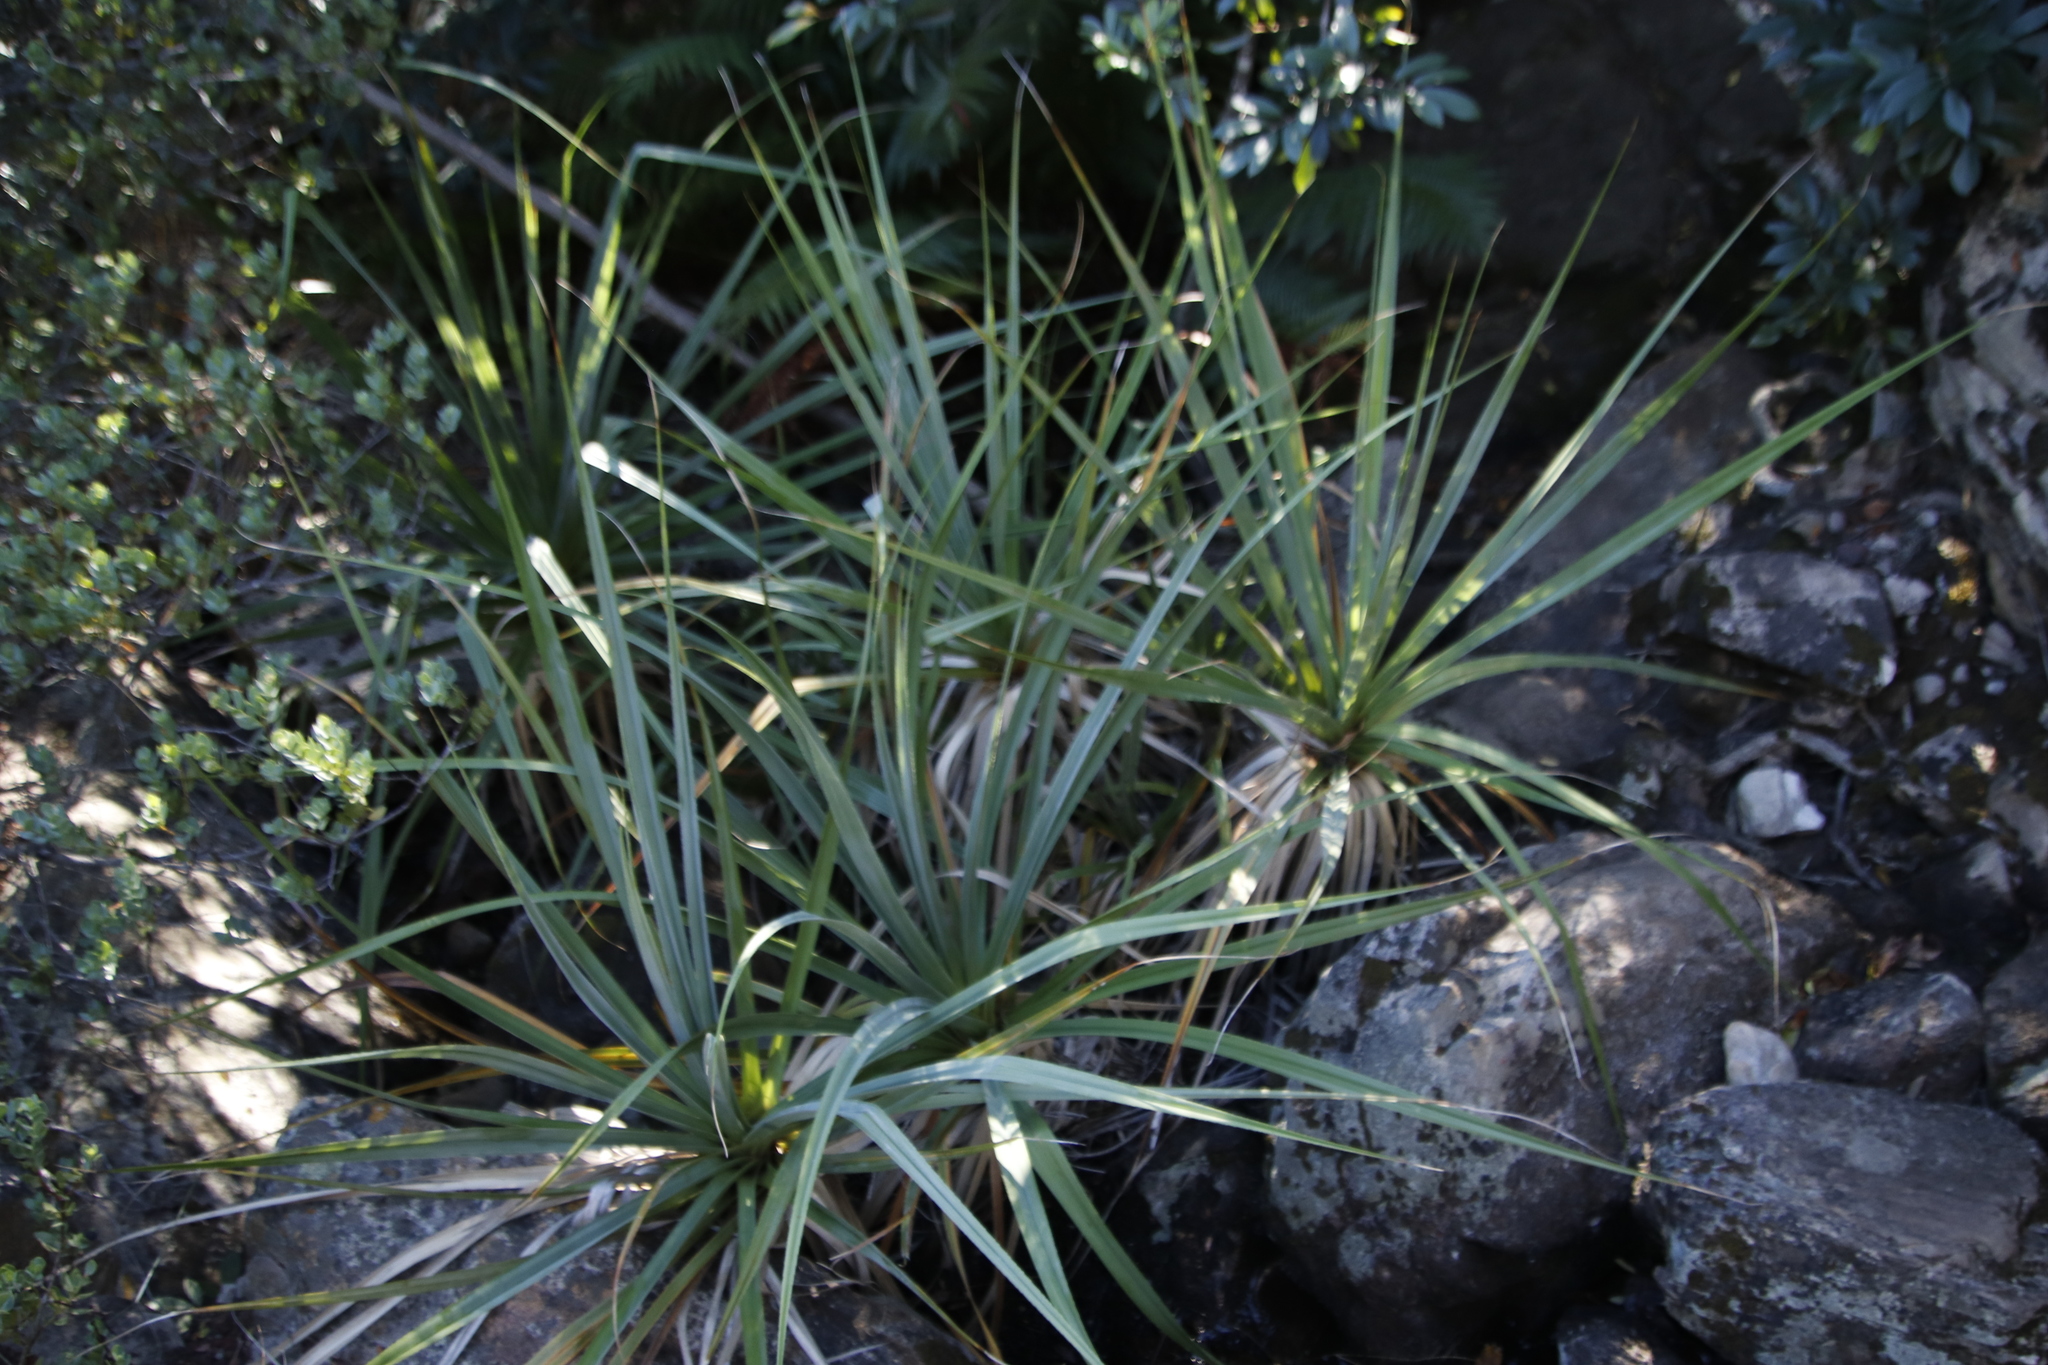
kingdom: Plantae
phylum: Tracheophyta
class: Liliopsida
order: Poales
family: Thurniaceae
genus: Prionium
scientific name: Prionium serratum
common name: Palmiet
